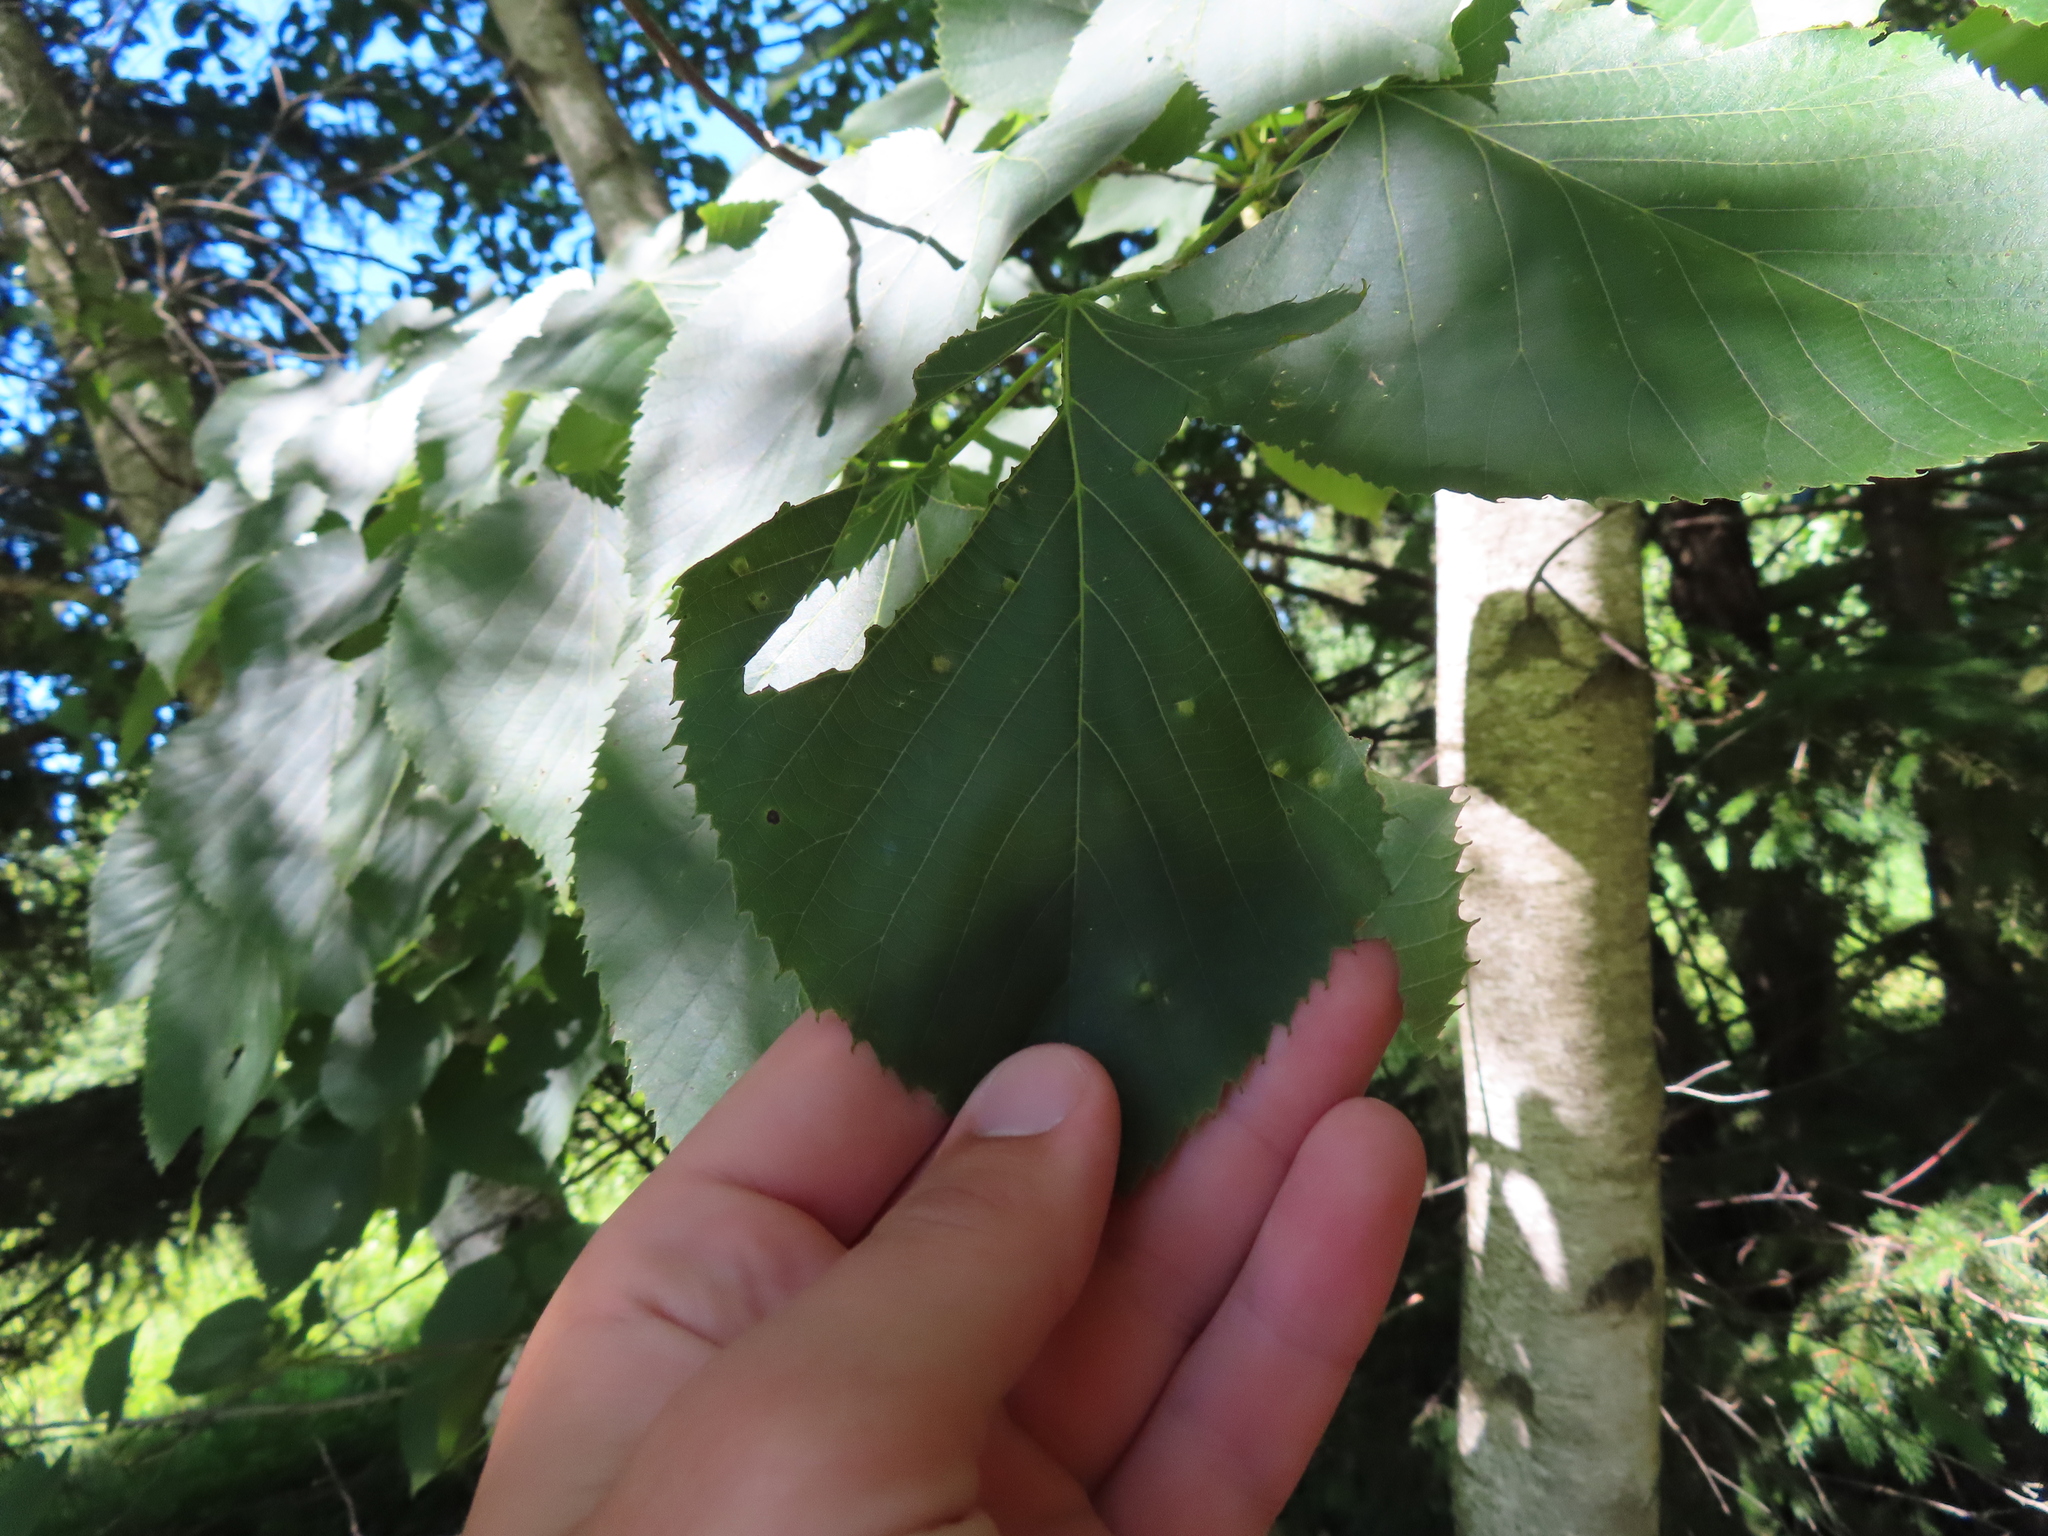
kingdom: Animalia
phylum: Arthropoda
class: Insecta
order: Diptera
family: Cecidomyiidae
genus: Contarinia
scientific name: Contarinia verrucicola
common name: Linden wart gall midge
